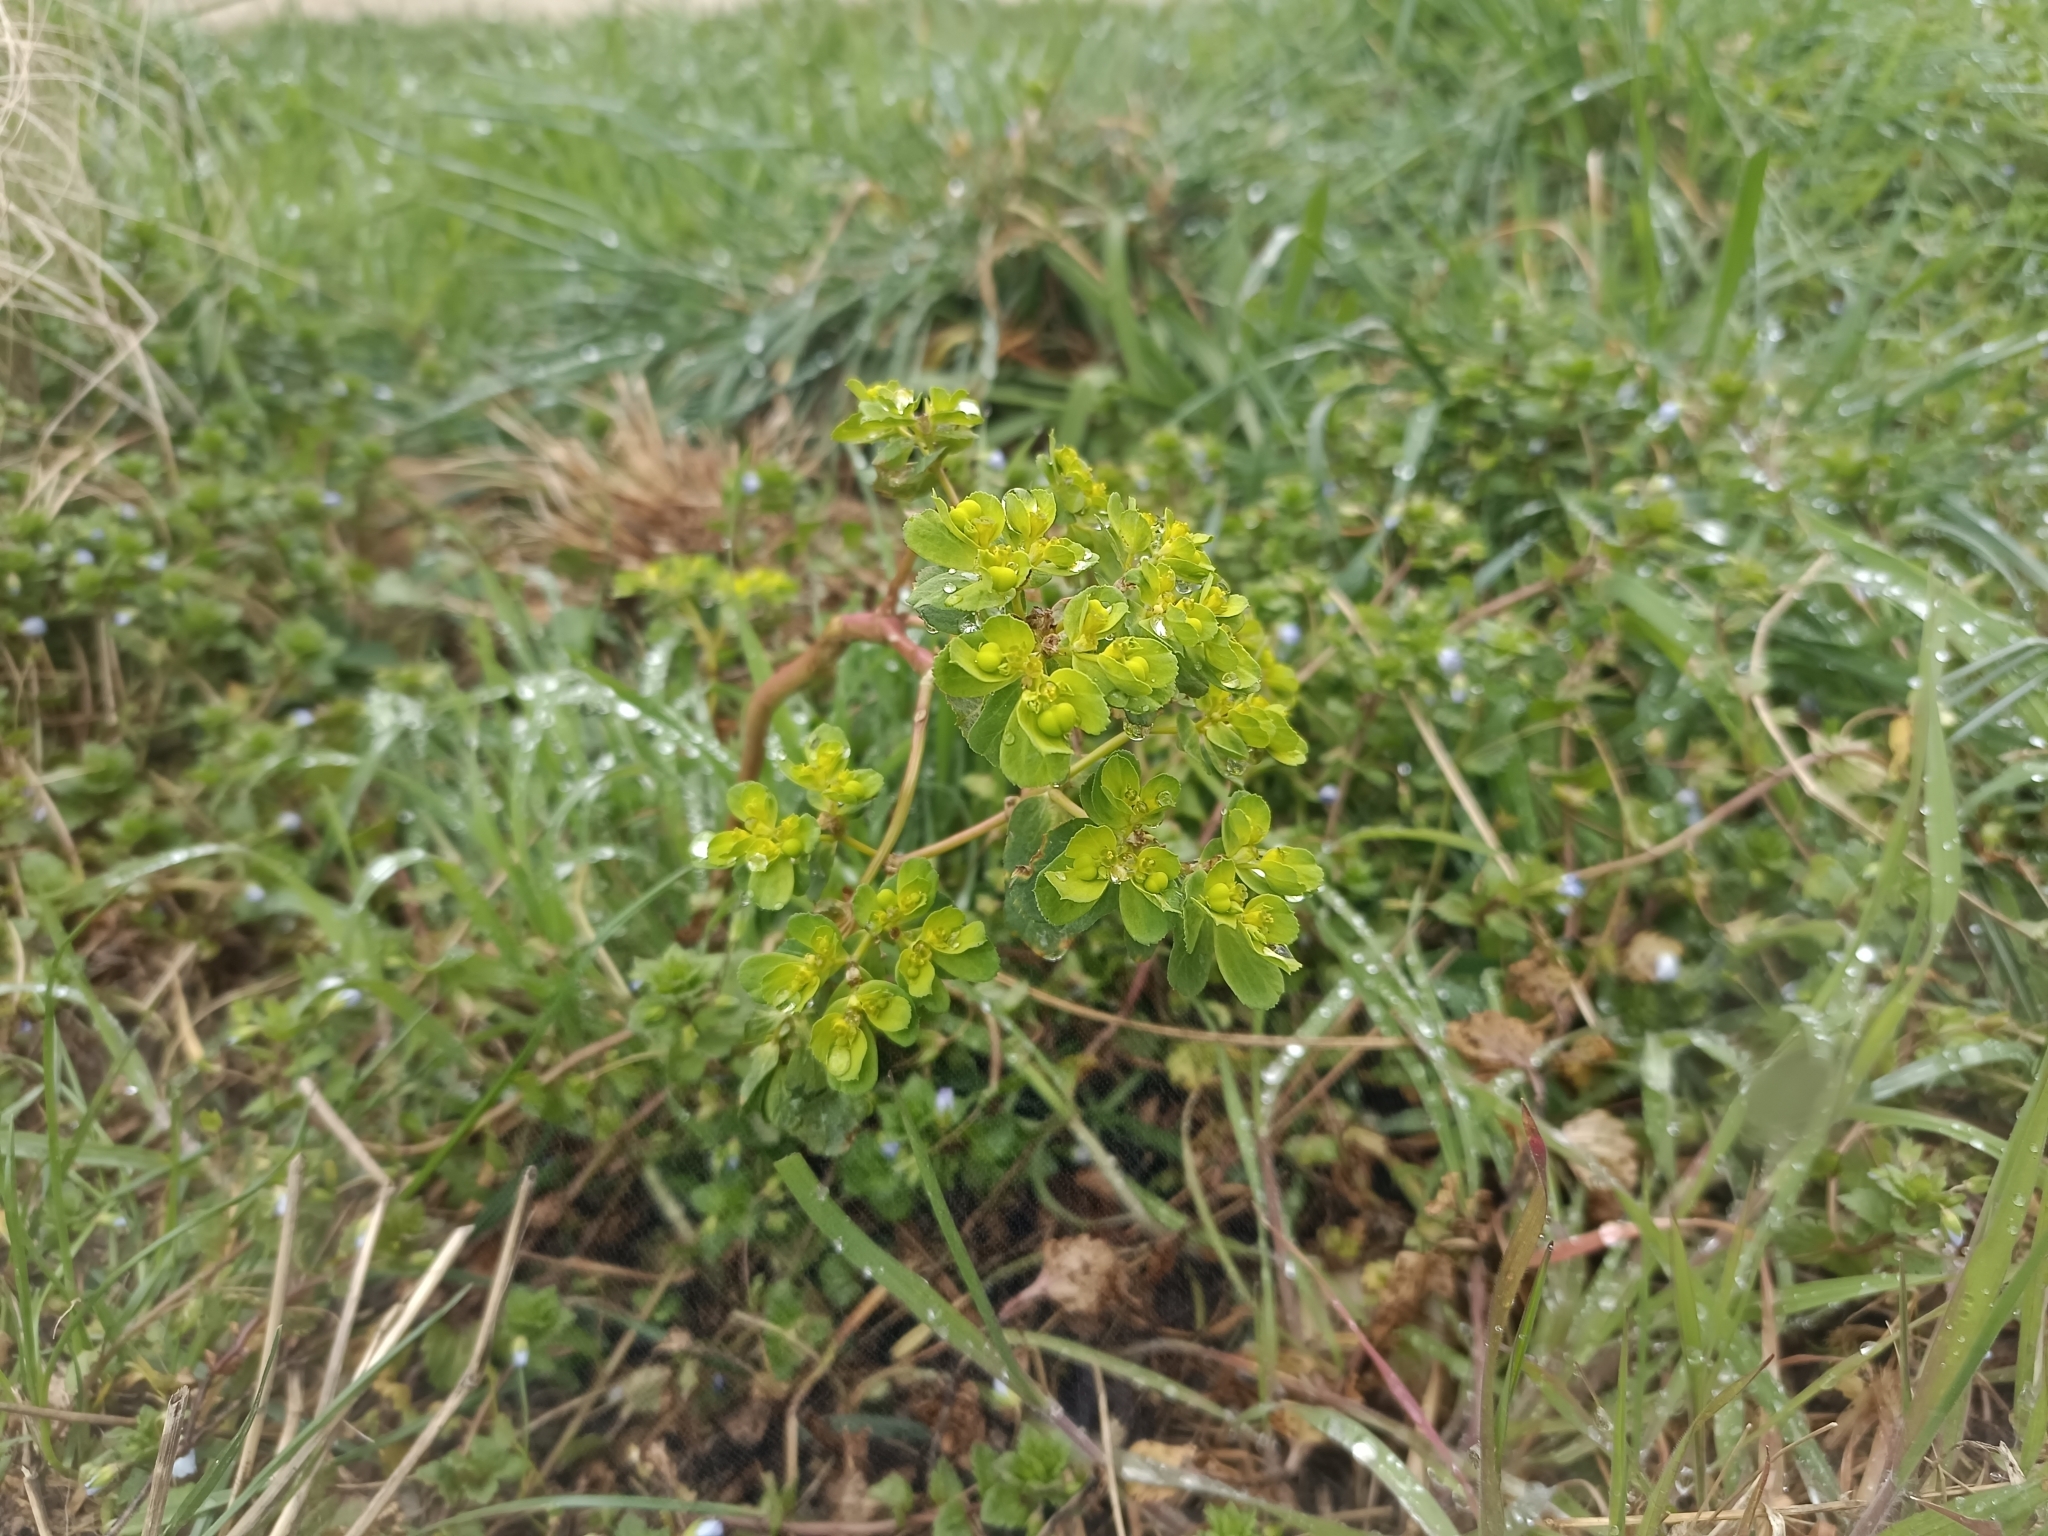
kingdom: Plantae
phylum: Tracheophyta
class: Magnoliopsida
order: Malpighiales
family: Euphorbiaceae
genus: Euphorbia
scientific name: Euphorbia helioscopia
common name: Sun spurge
